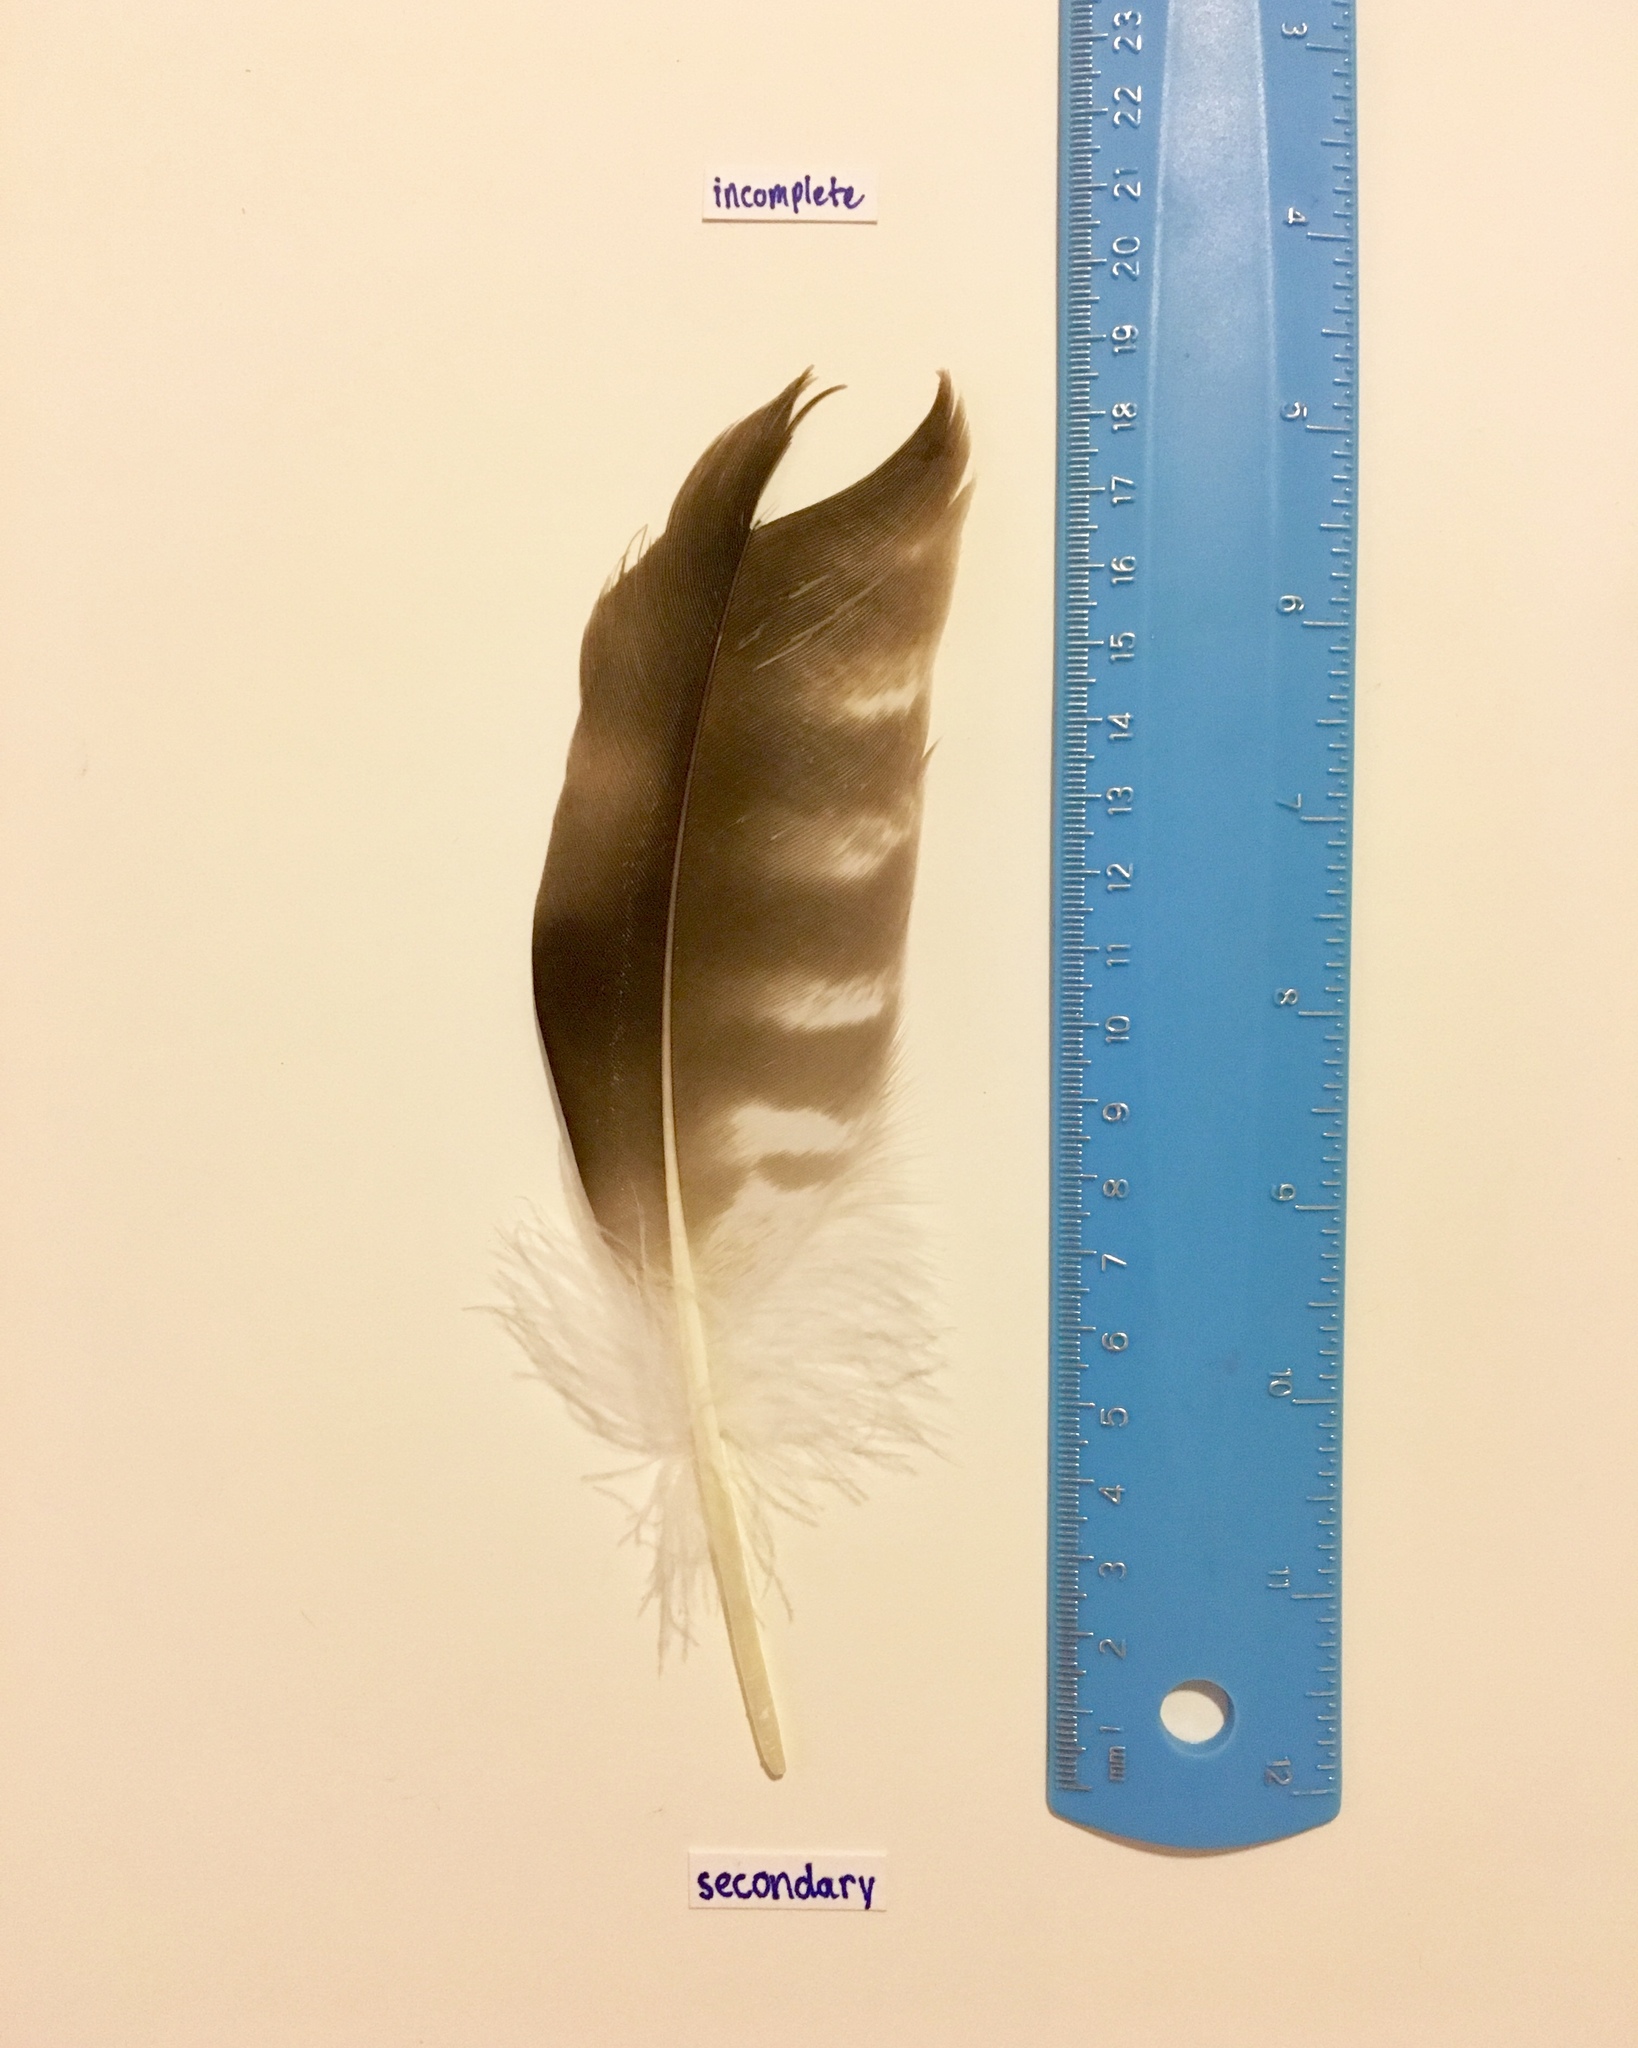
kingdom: Animalia
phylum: Chordata
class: Aves
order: Accipitriformes
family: Pandionidae
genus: Pandion
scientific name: Pandion haliaetus
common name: Osprey
